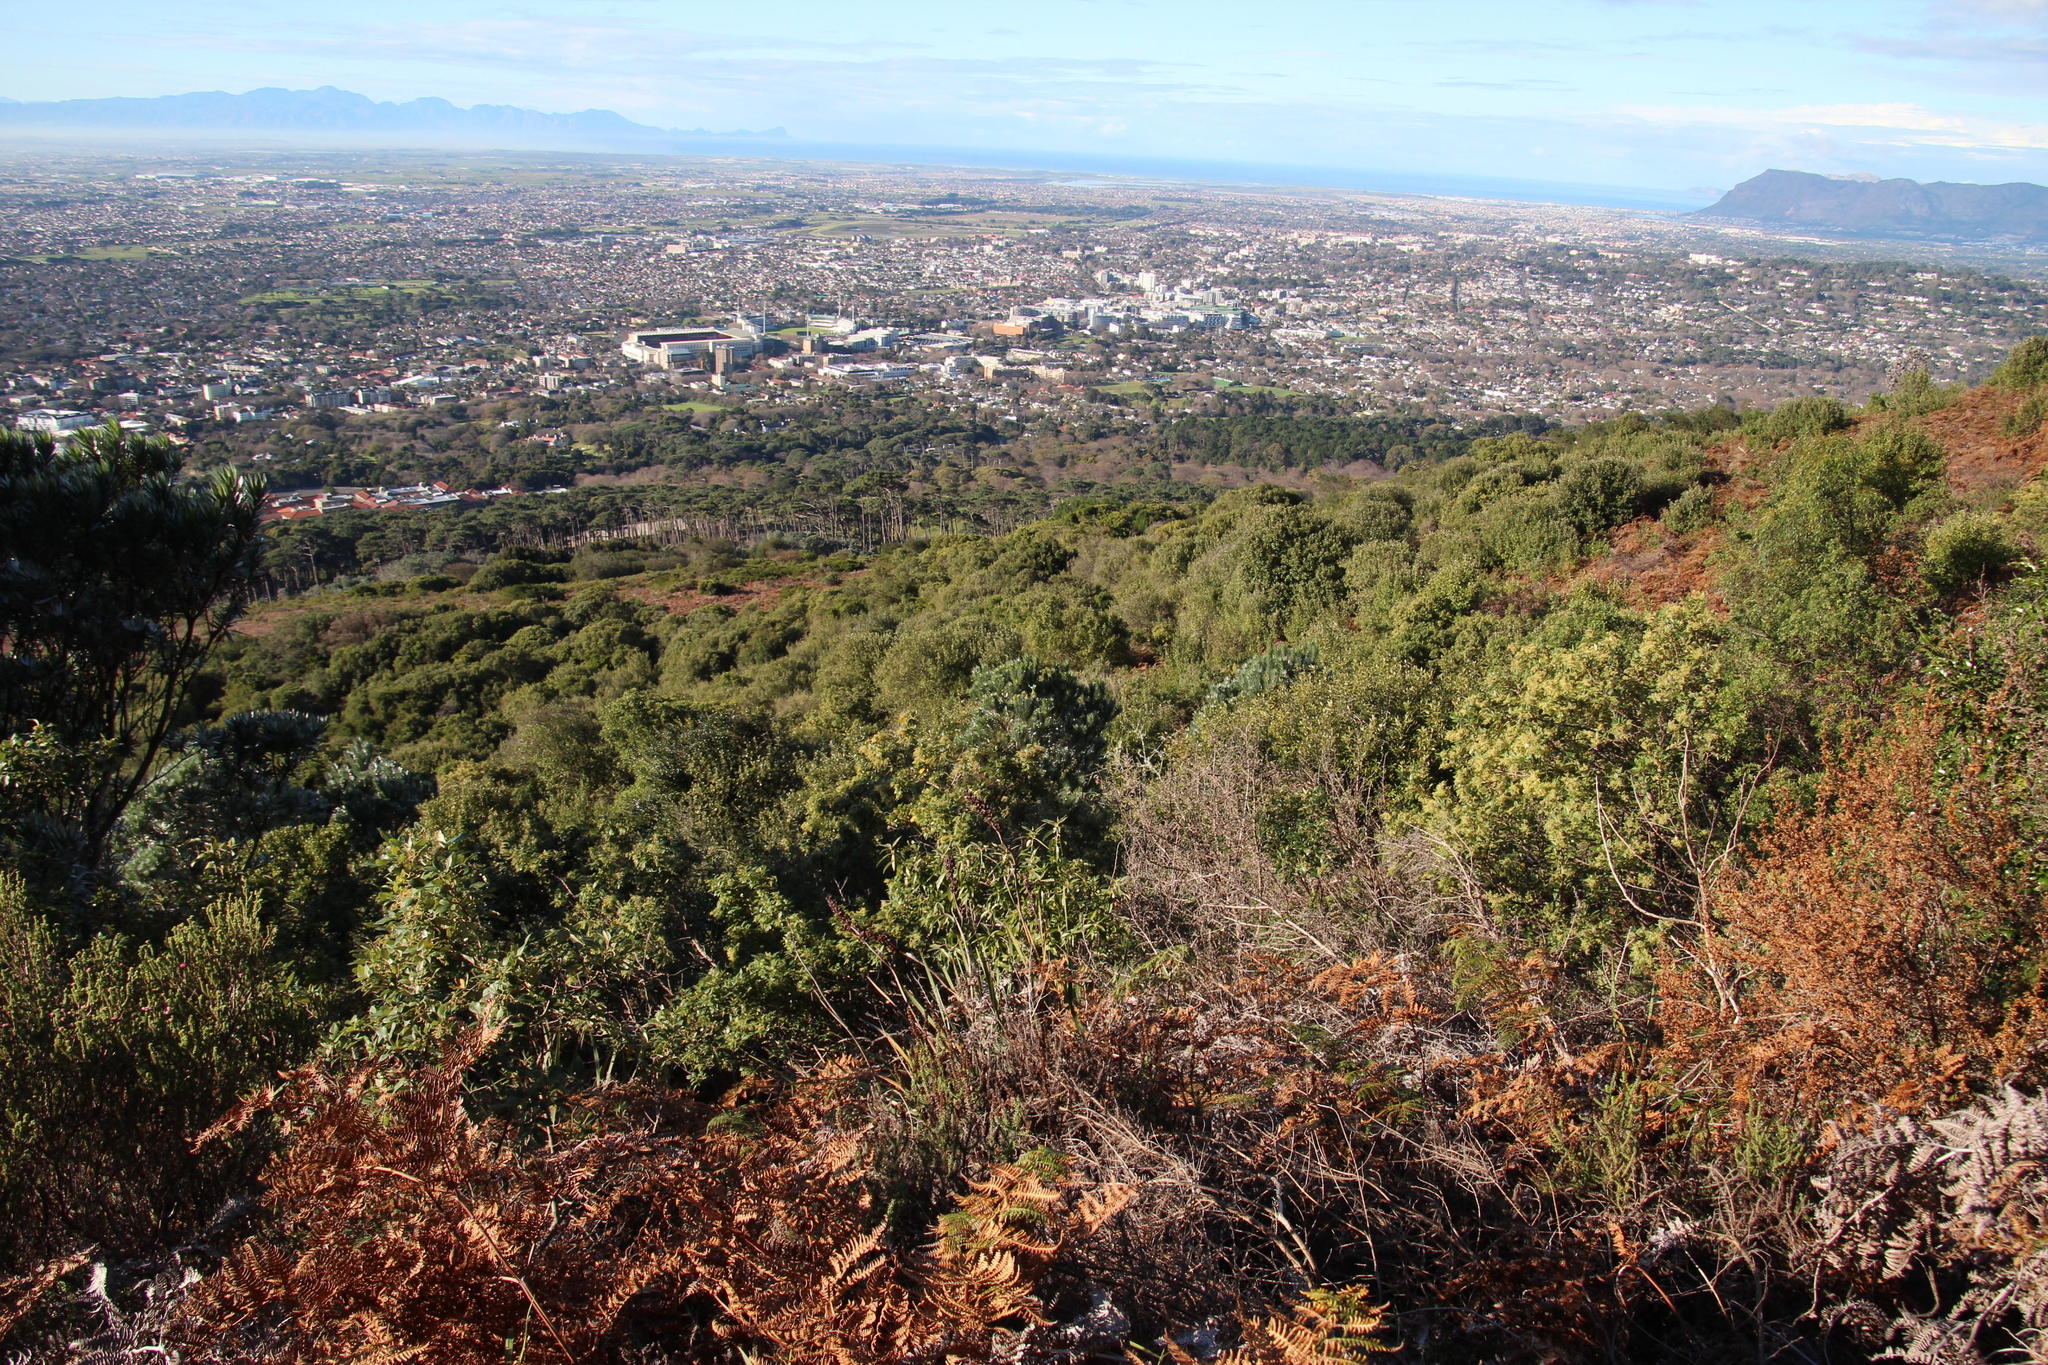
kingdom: Plantae
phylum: Tracheophyta
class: Magnoliopsida
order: Malpighiales
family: Achariaceae
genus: Kiggelaria
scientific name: Kiggelaria africana
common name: Wild peach
